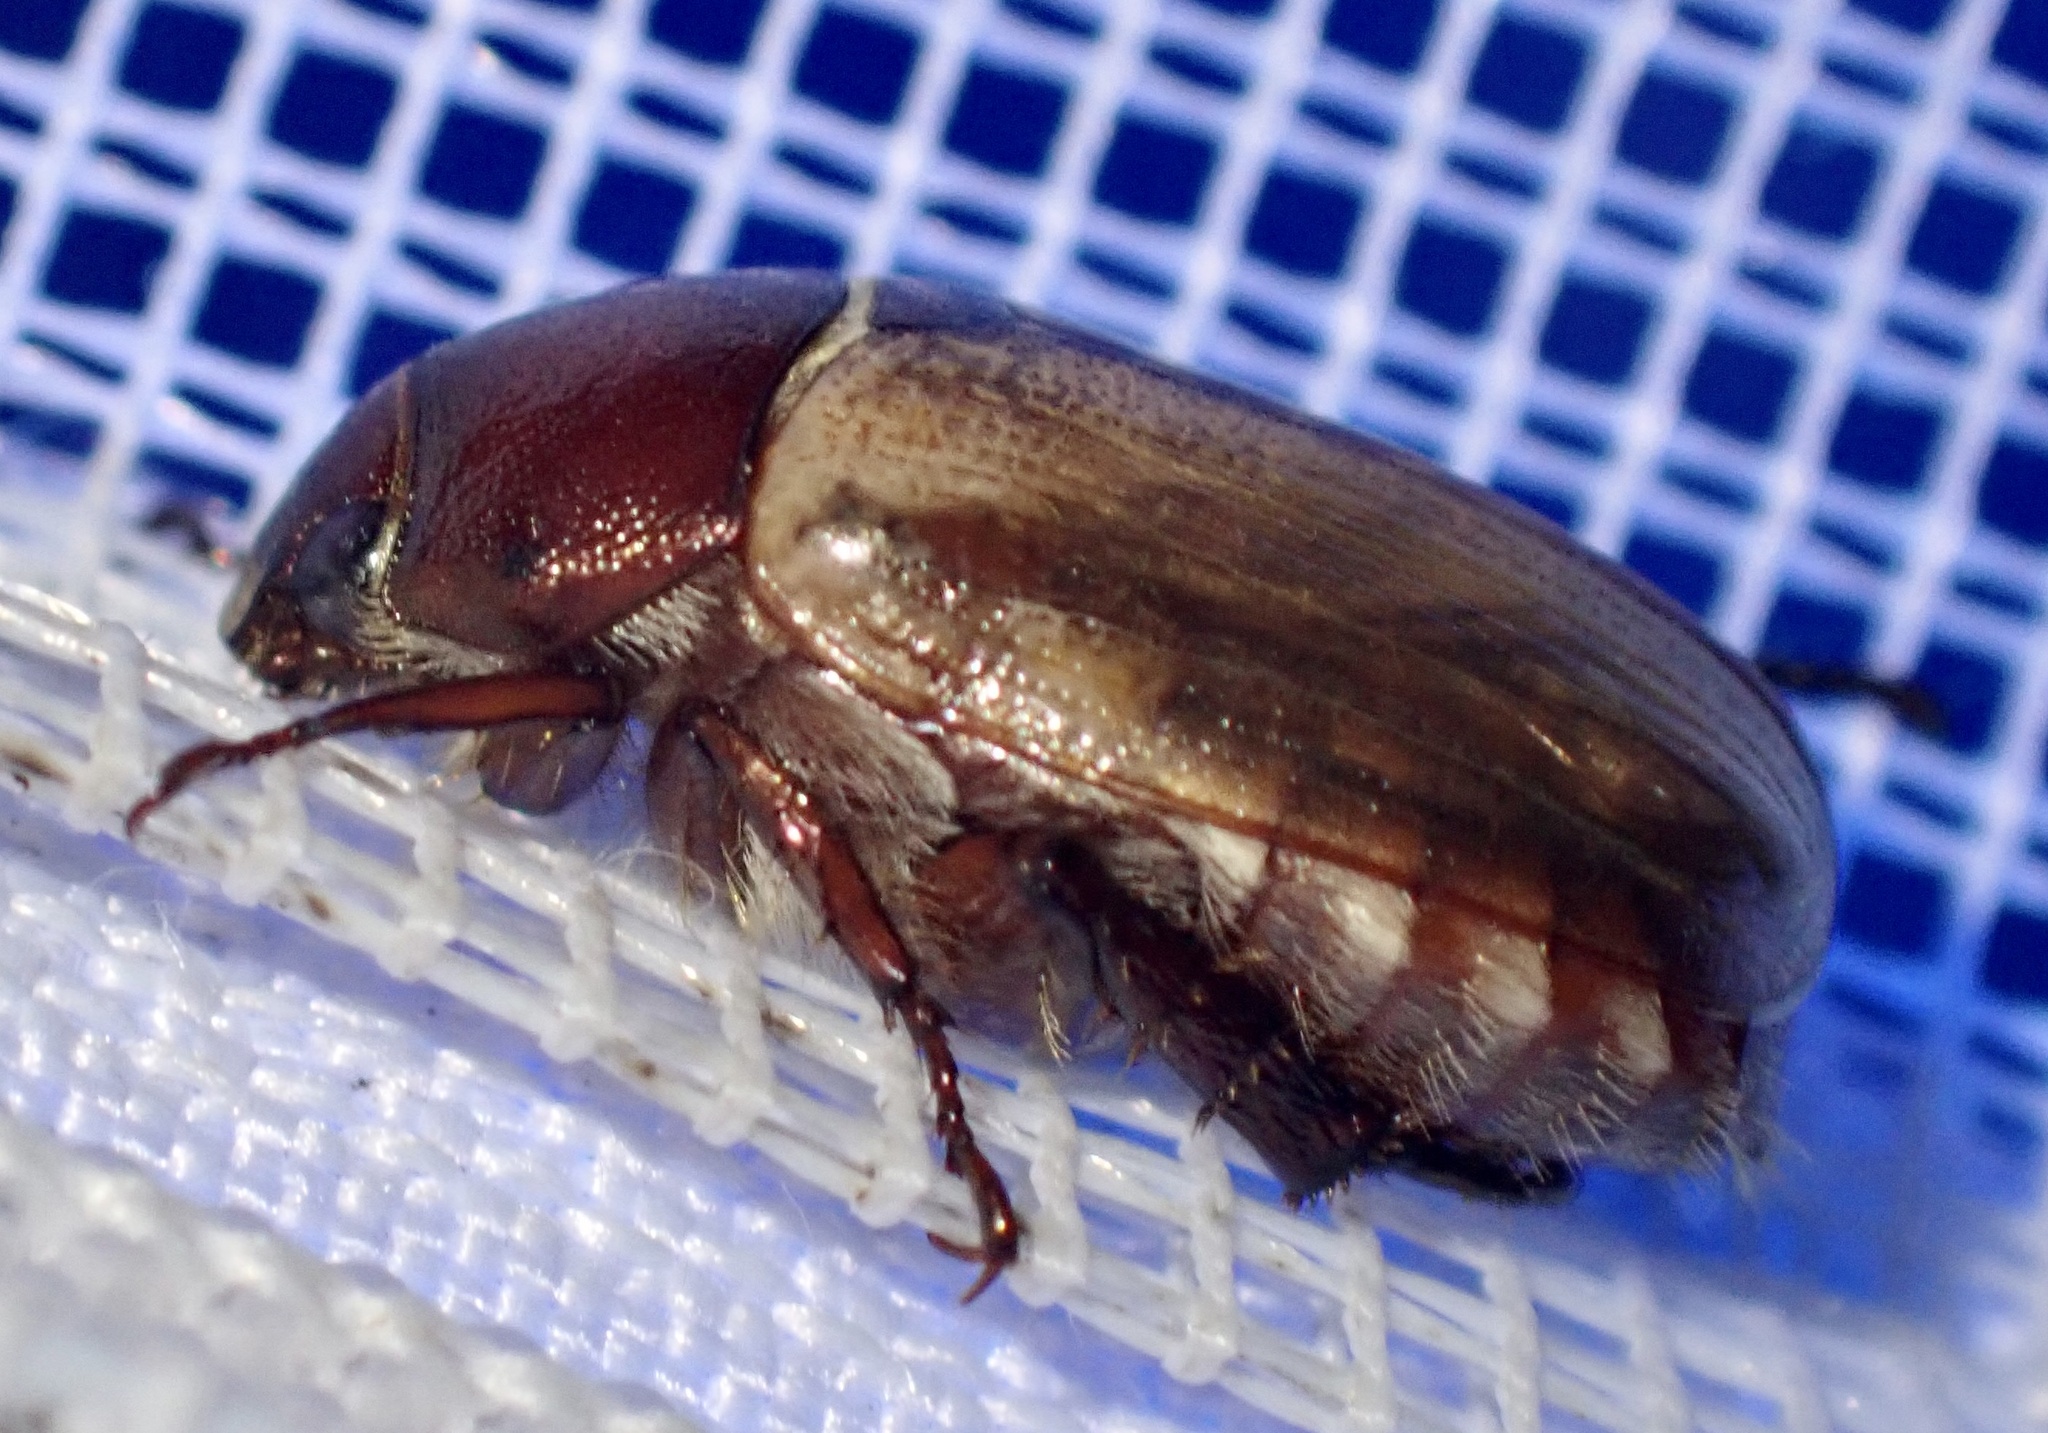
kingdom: Animalia
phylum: Arthropoda
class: Insecta
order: Coleoptera
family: Scarabaeidae
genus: Anomala
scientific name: Anomala brachycaula
